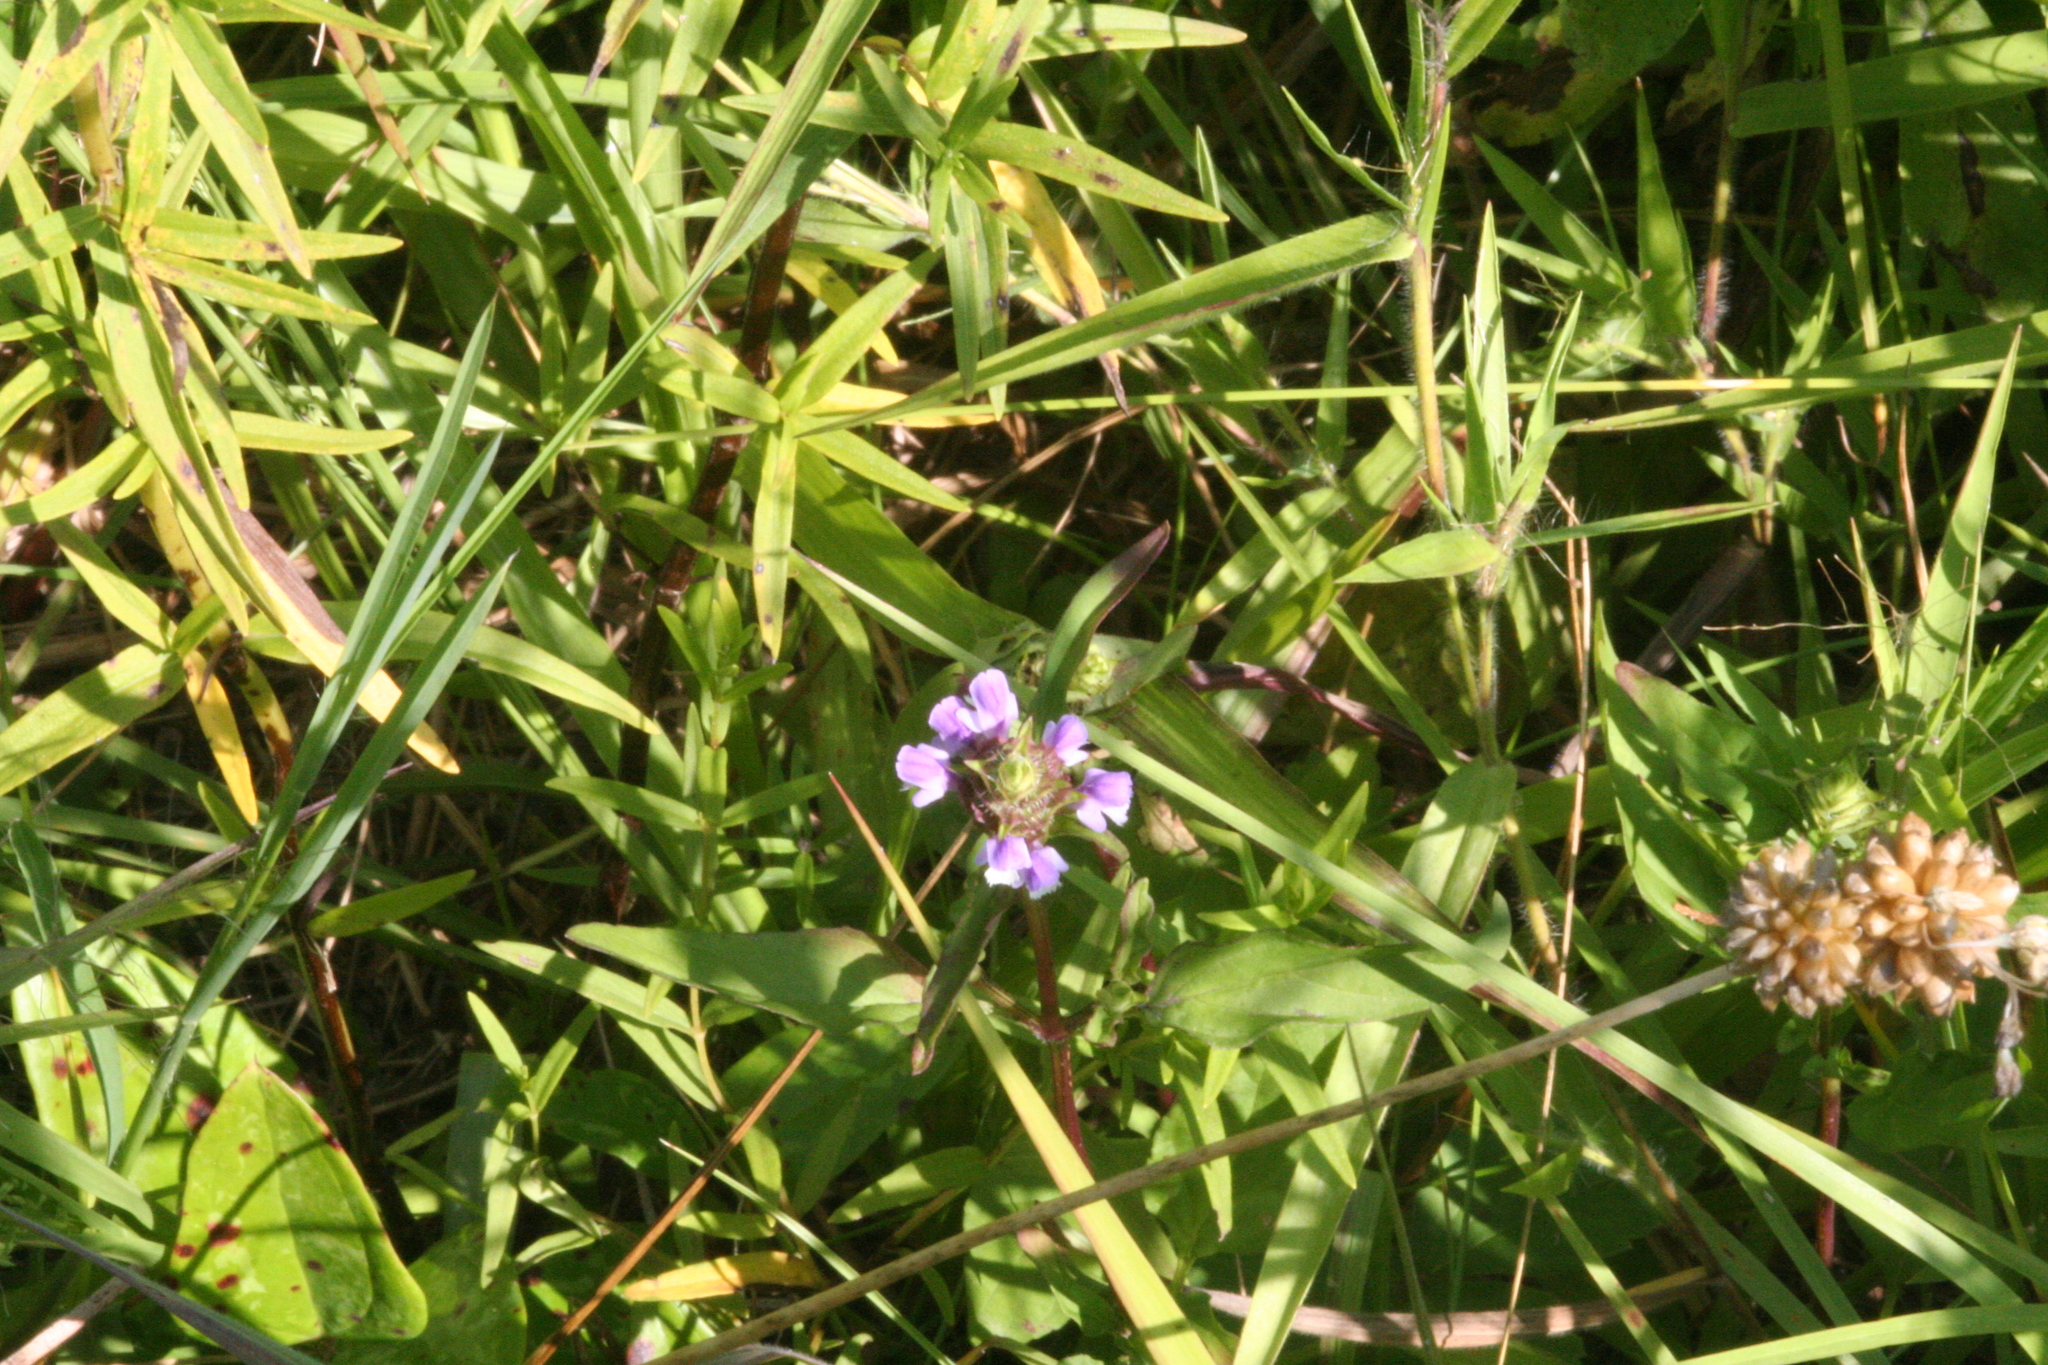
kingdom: Plantae
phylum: Tracheophyta
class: Magnoliopsida
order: Lamiales
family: Lamiaceae
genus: Prunella
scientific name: Prunella vulgaris
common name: Heal-all
